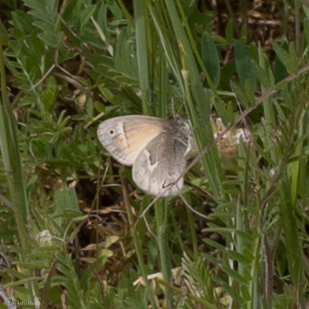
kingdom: Animalia
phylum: Arthropoda
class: Insecta
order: Lepidoptera
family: Nymphalidae
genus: Coenonympha
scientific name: Coenonympha california
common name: Common ringlet
